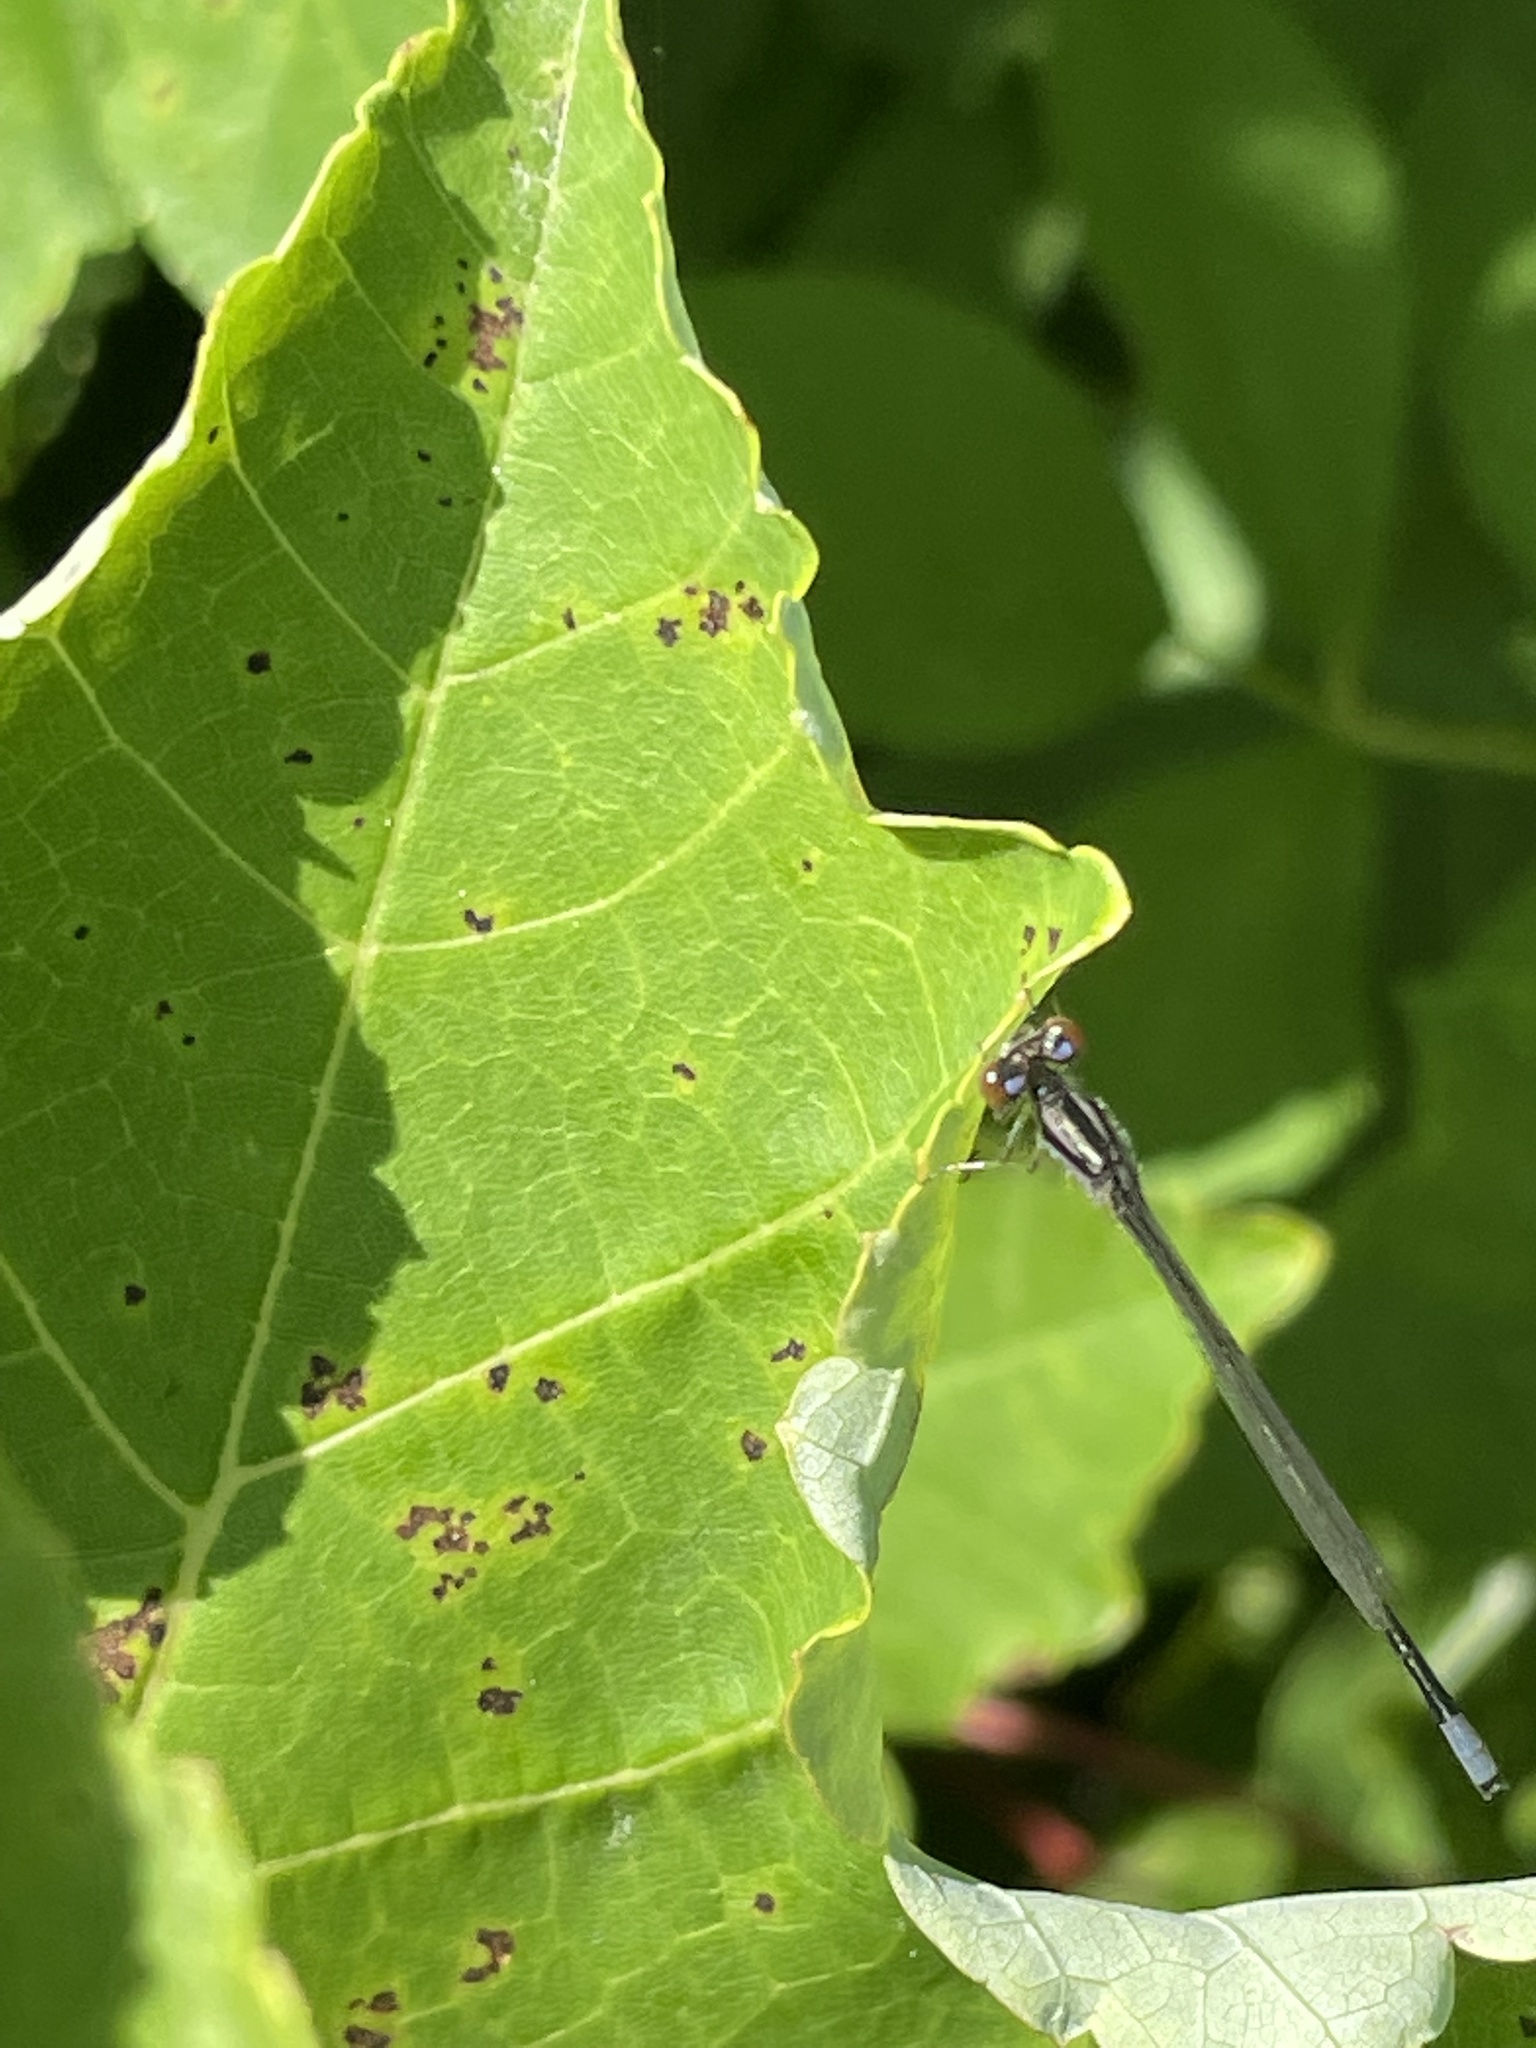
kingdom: Animalia
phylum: Arthropoda
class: Insecta
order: Odonata
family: Coenagrionidae
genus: Enallagma
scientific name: Enallagma geminatum
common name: Skimming bluet
